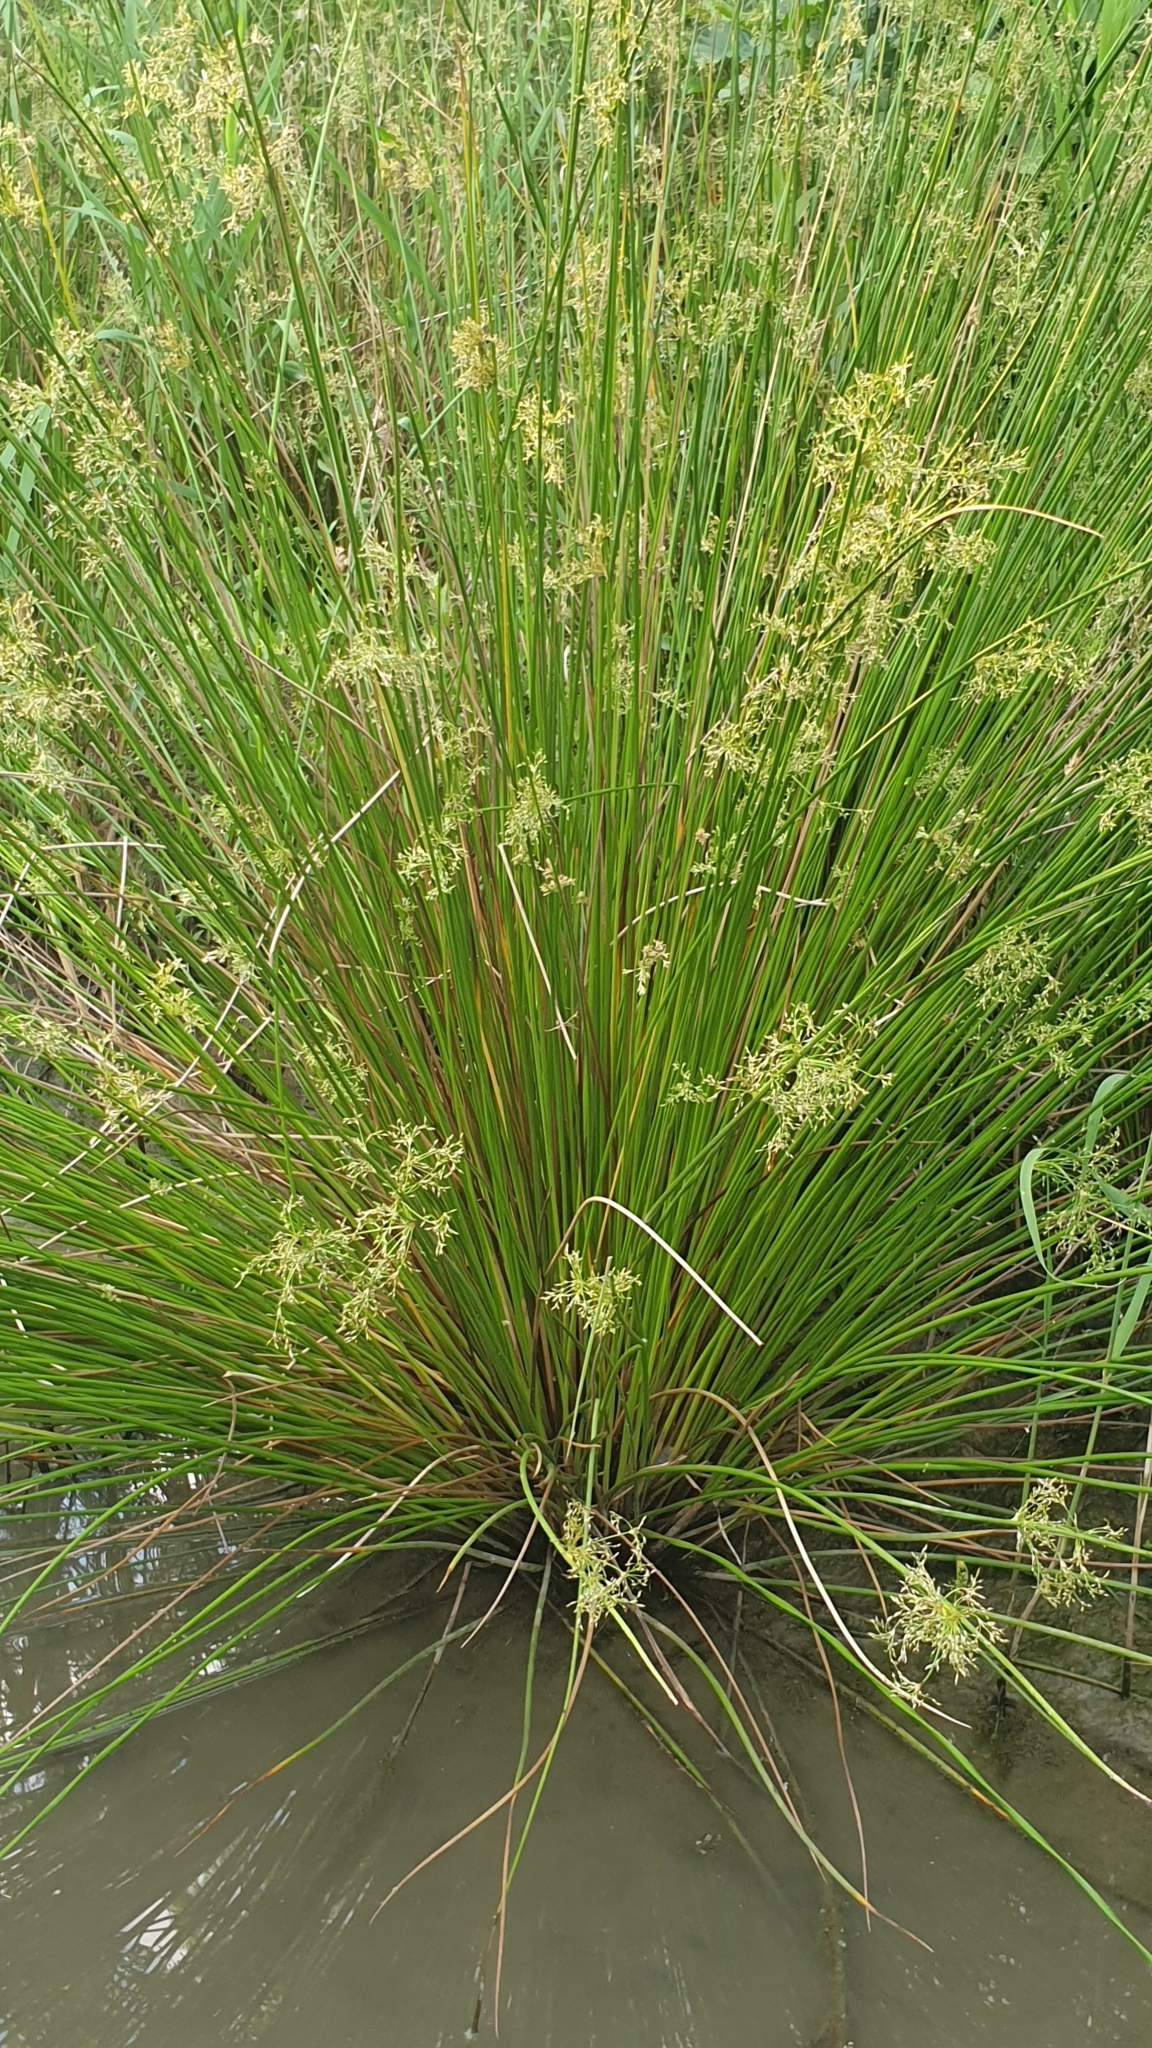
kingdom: Plantae
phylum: Tracheophyta
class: Liliopsida
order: Poales
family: Juncaceae
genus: Juncus
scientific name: Juncus effusus
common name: Soft rush
